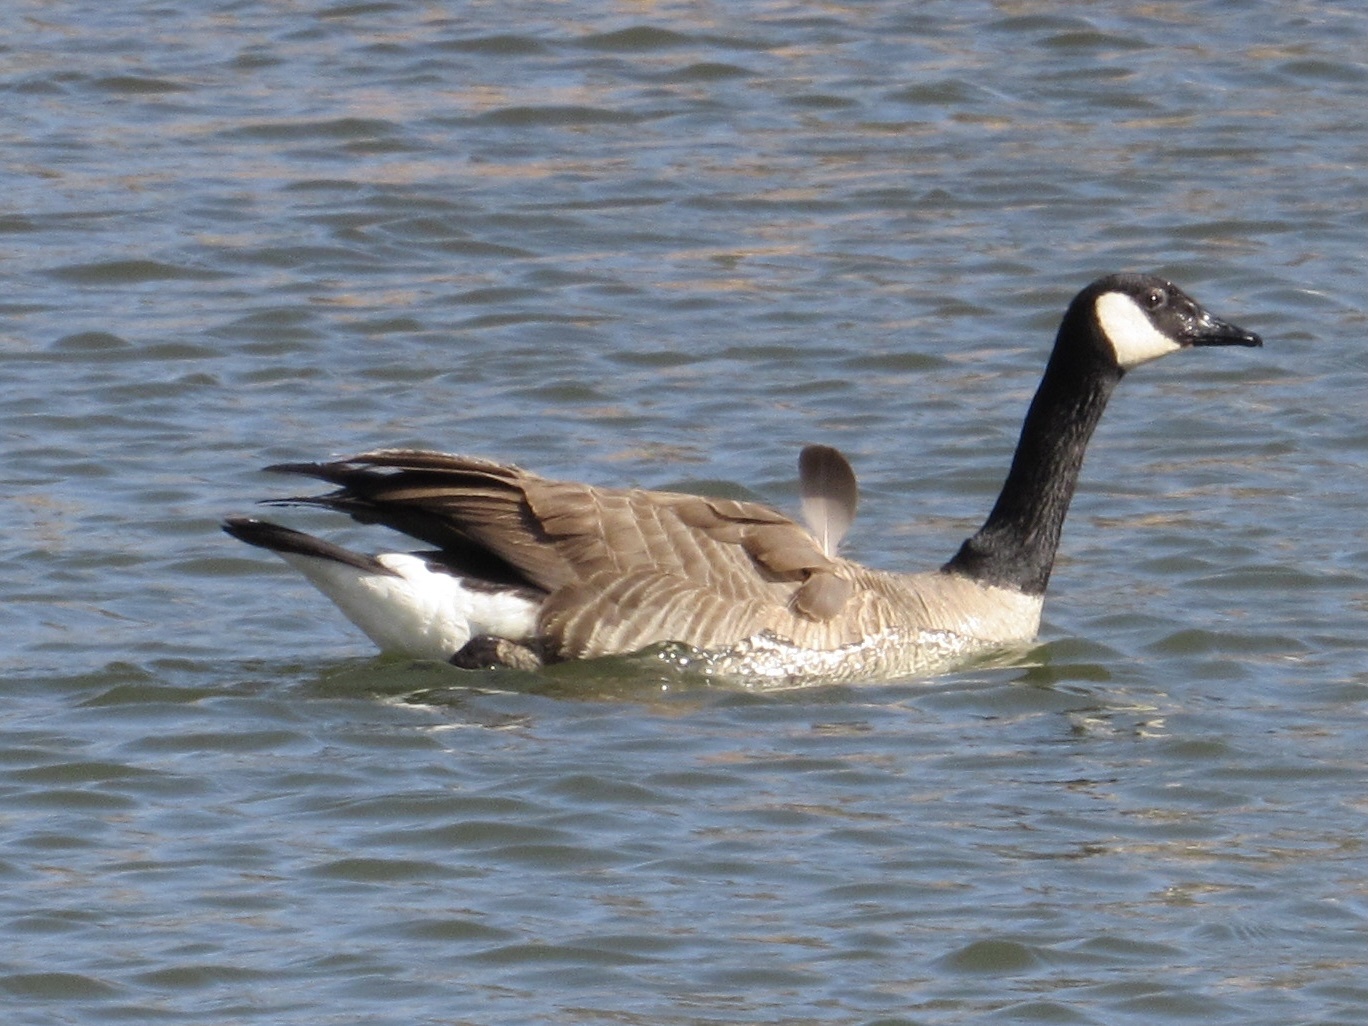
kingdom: Animalia
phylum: Chordata
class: Aves
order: Anseriformes
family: Anatidae
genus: Branta
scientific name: Branta canadensis
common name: Canada goose
